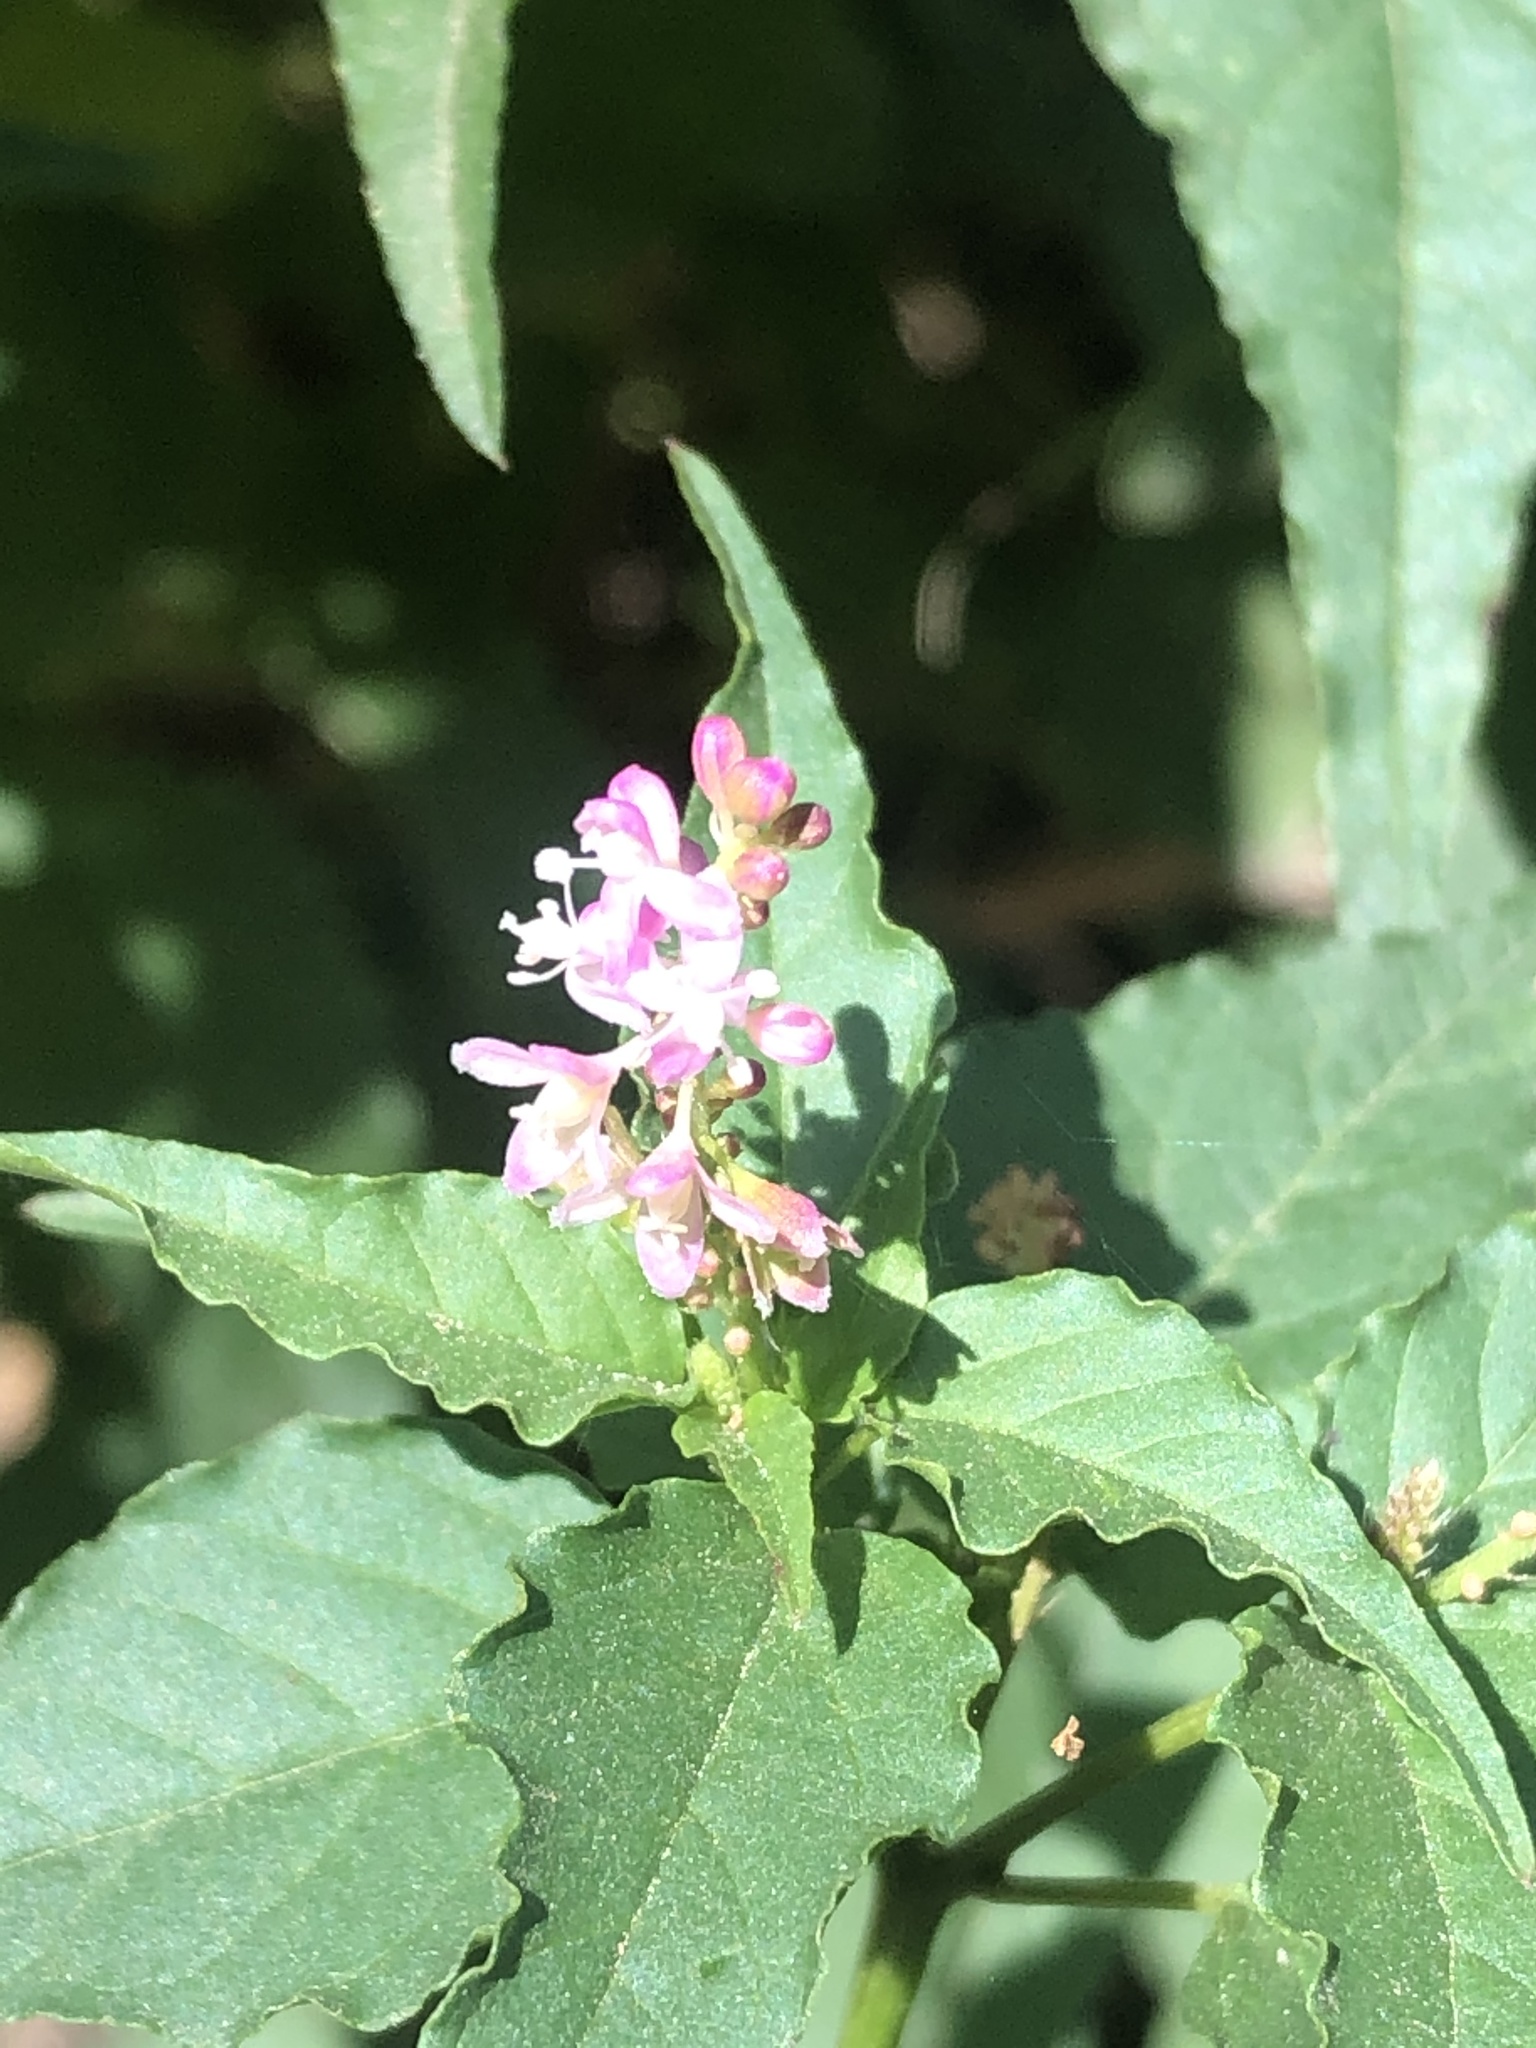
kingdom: Plantae
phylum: Tracheophyta
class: Magnoliopsida
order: Caryophyllales
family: Phytolaccaceae
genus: Rivina
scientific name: Rivina humilis
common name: Rougeplant
